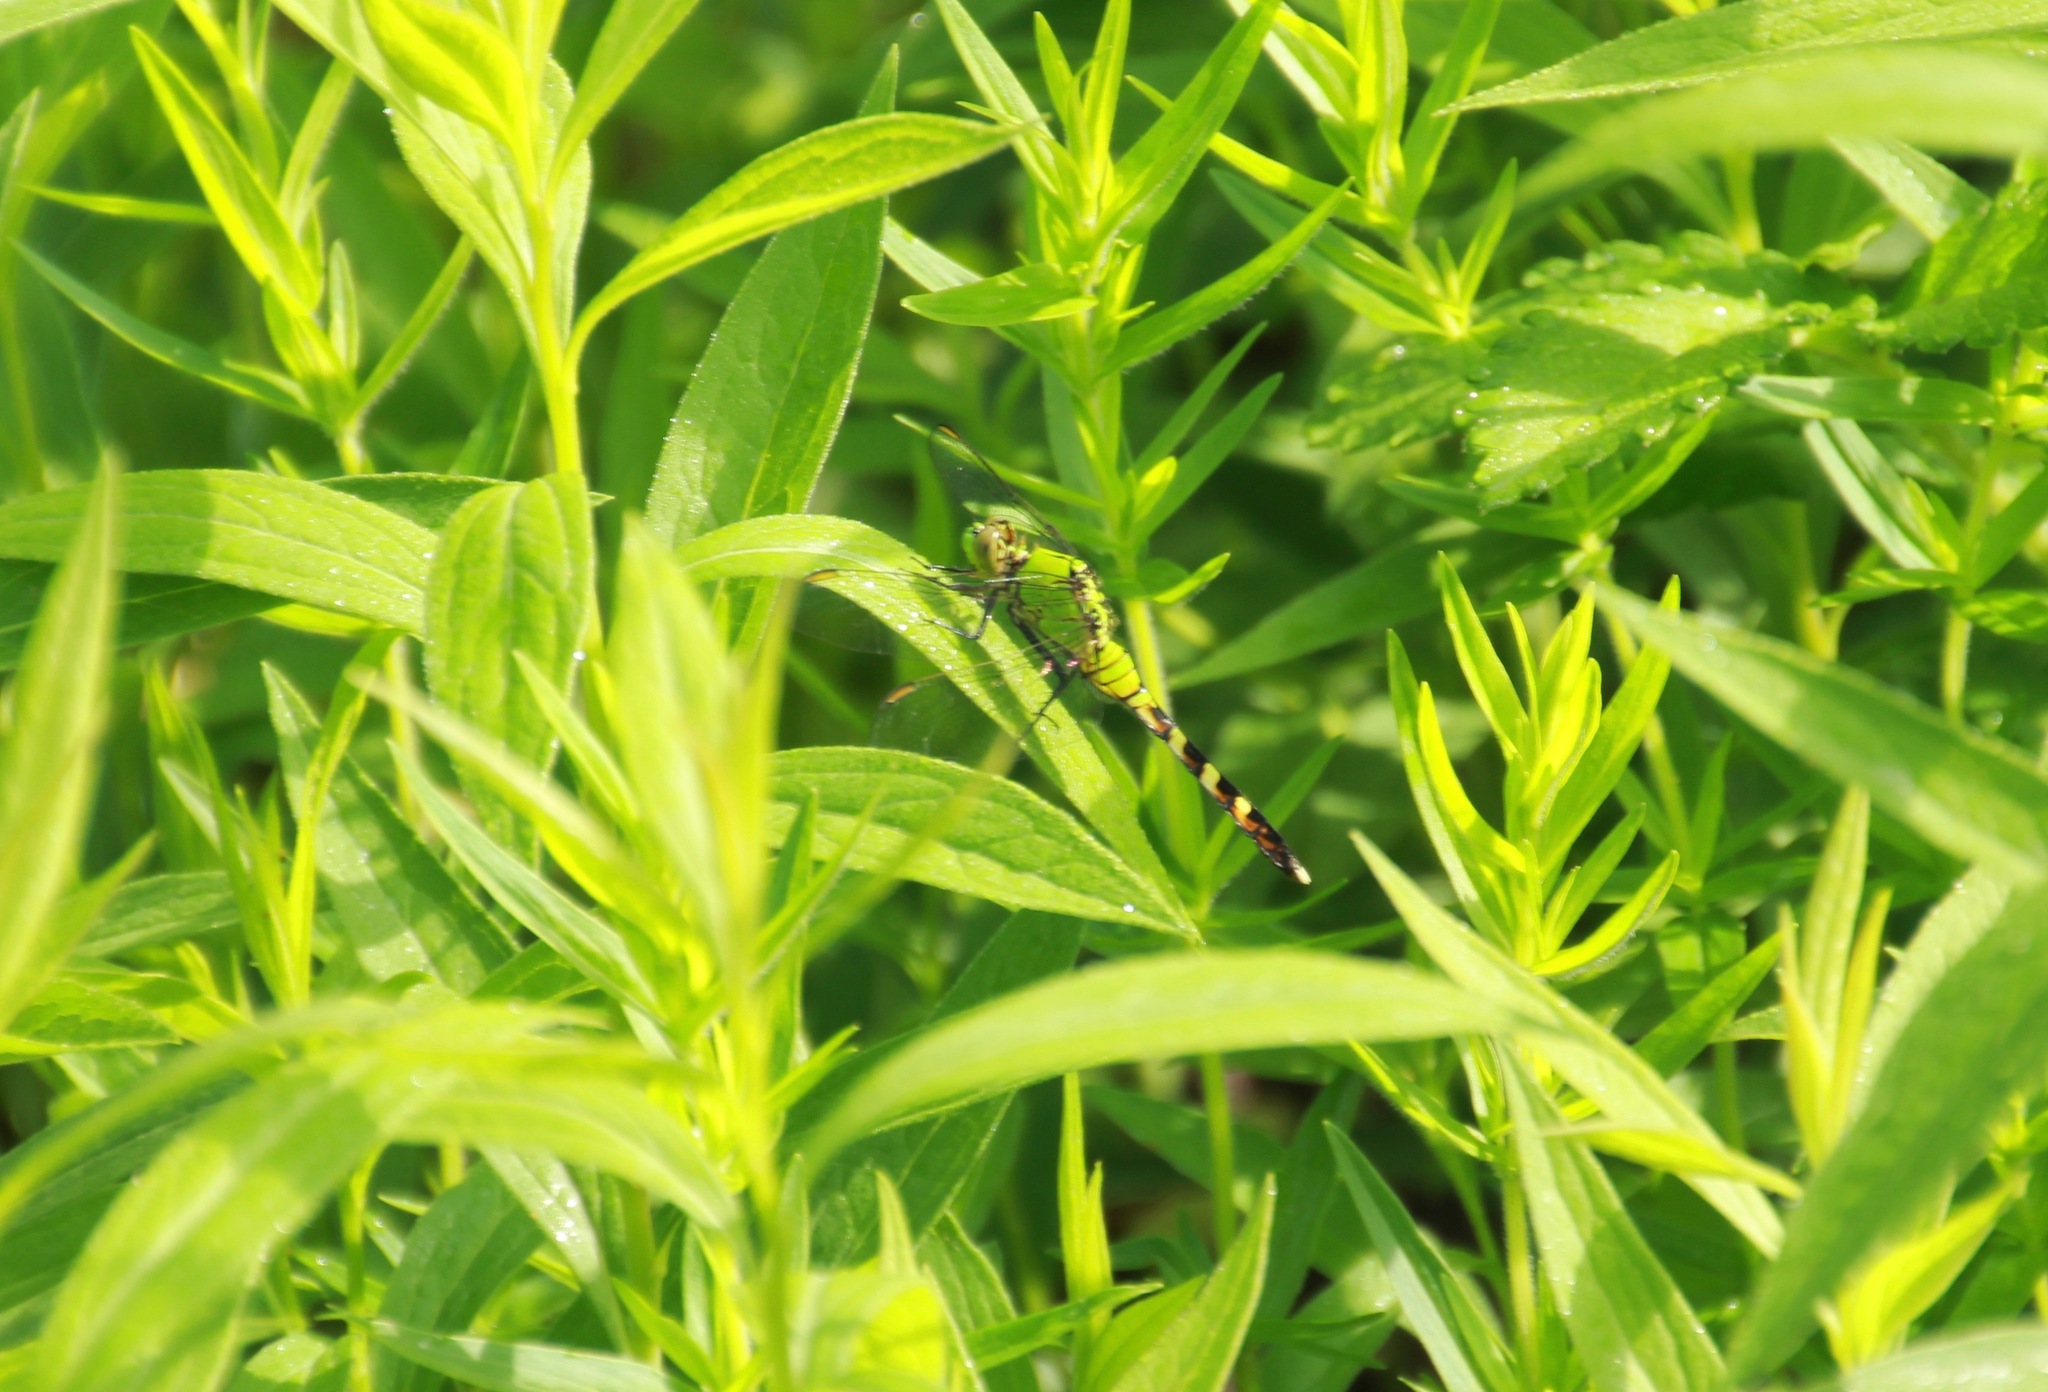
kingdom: Animalia
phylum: Arthropoda
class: Insecta
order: Odonata
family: Libellulidae
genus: Erythemis
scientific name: Erythemis simplicicollis
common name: Eastern pondhawk
